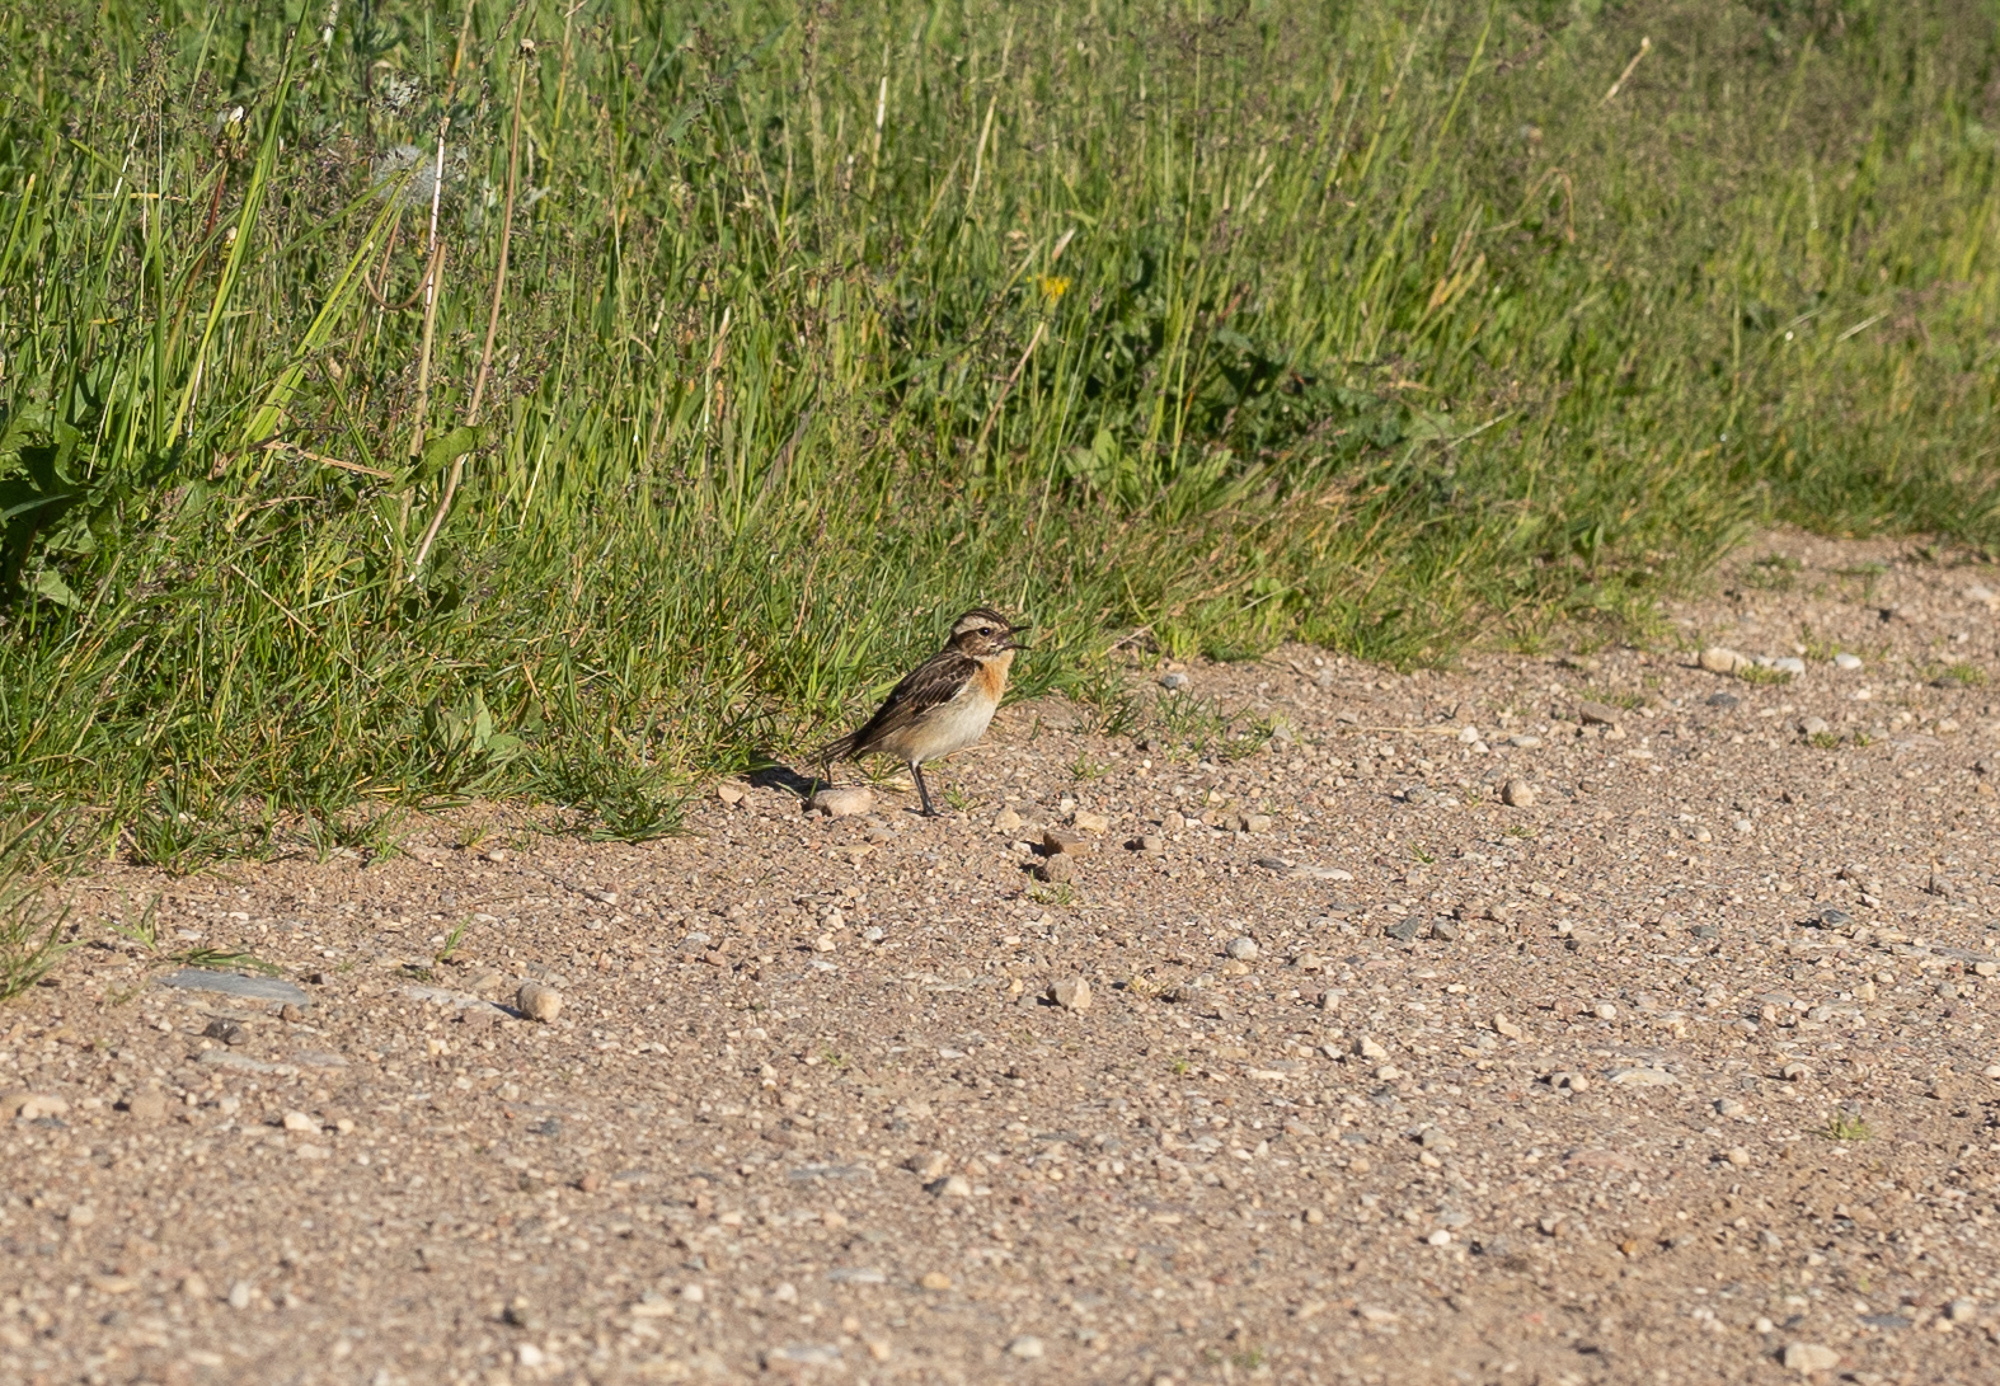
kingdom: Animalia
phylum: Chordata
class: Aves
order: Passeriformes
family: Muscicapidae
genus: Saxicola
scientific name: Saxicola rubetra
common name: Whinchat
